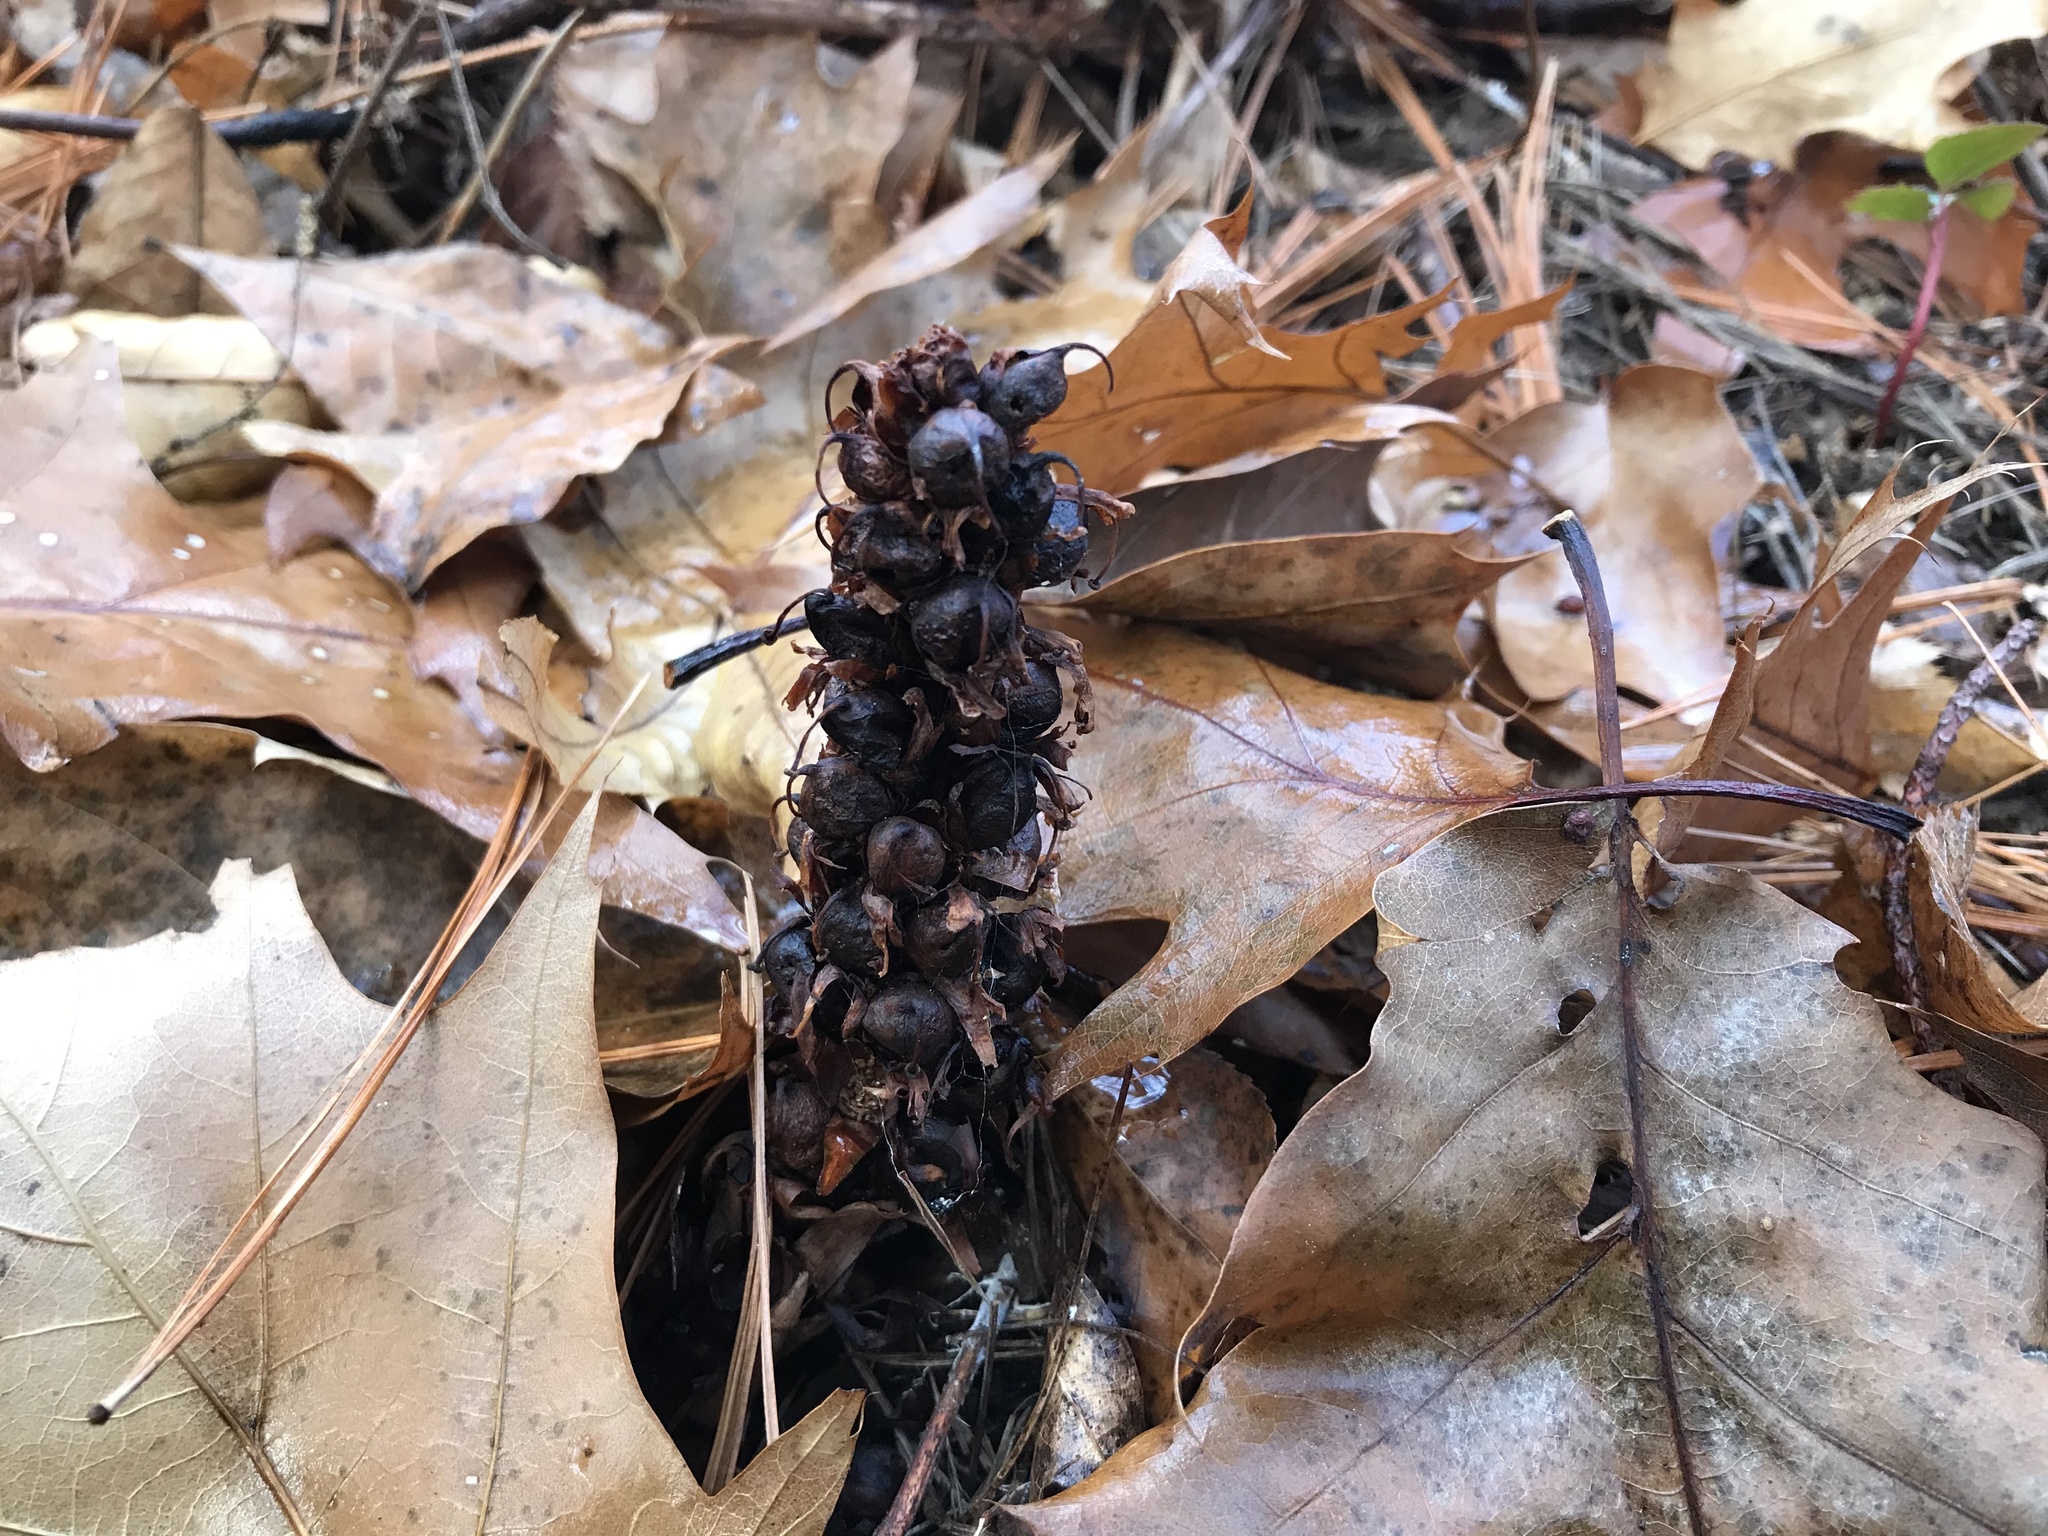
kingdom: Plantae
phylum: Tracheophyta
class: Magnoliopsida
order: Lamiales
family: Orobanchaceae
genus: Conopholis
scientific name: Conopholis americana
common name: American cancer-root
